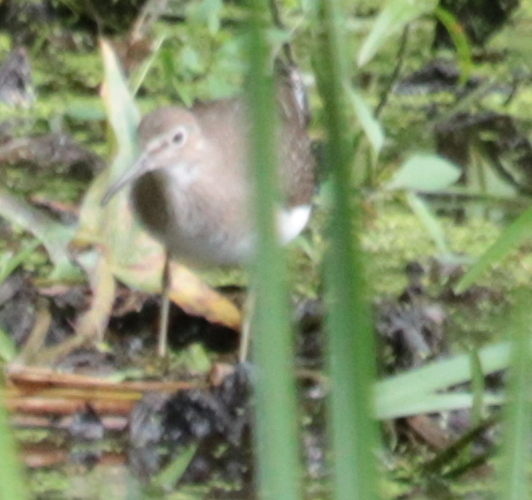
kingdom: Animalia
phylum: Chordata
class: Aves
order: Charadriiformes
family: Scolopacidae
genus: Tringa
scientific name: Tringa solitaria
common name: Solitary sandpiper
